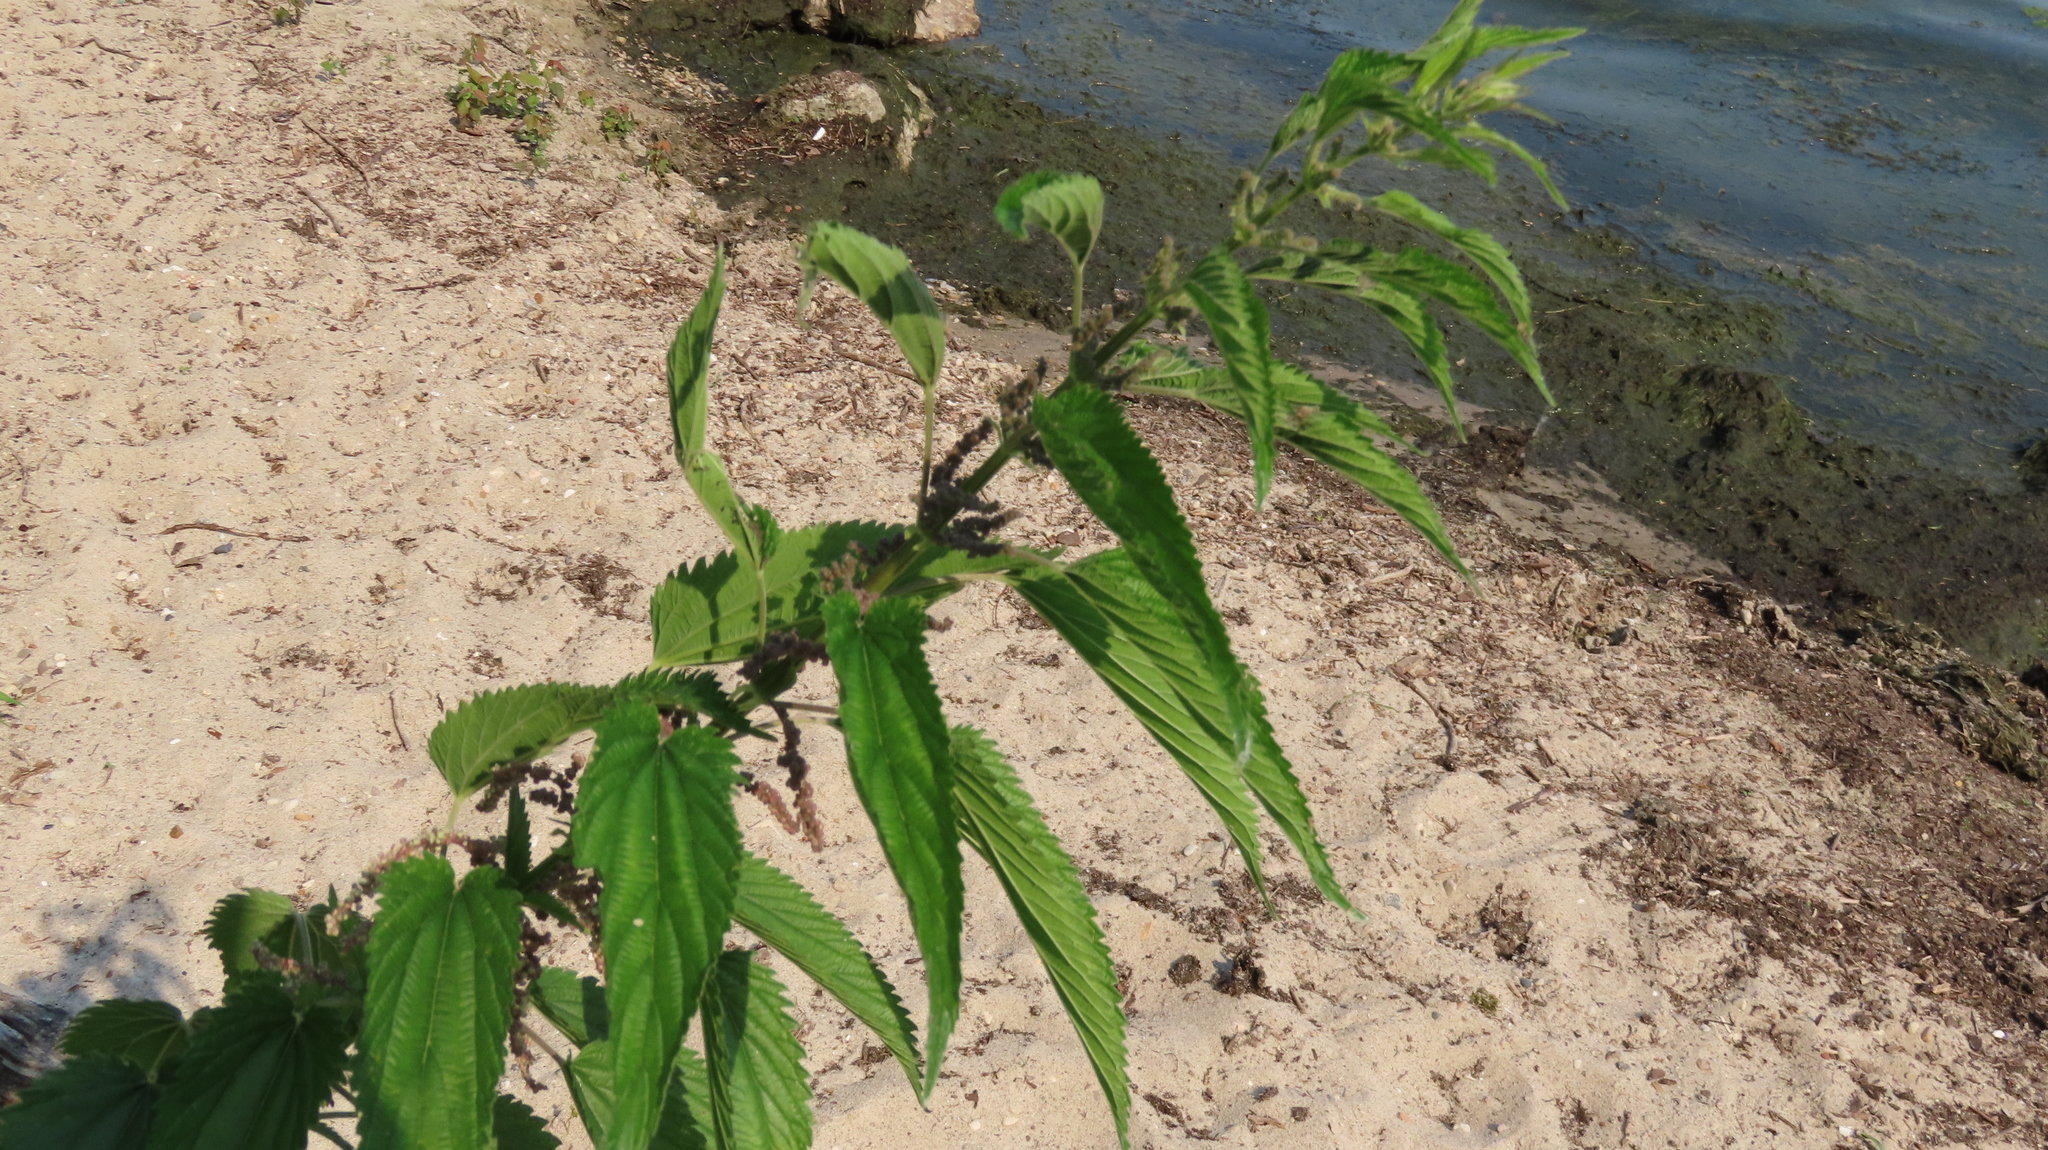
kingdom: Plantae
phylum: Tracheophyta
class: Magnoliopsida
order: Rosales
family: Urticaceae
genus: Urtica
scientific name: Urtica dioica
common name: Common nettle
